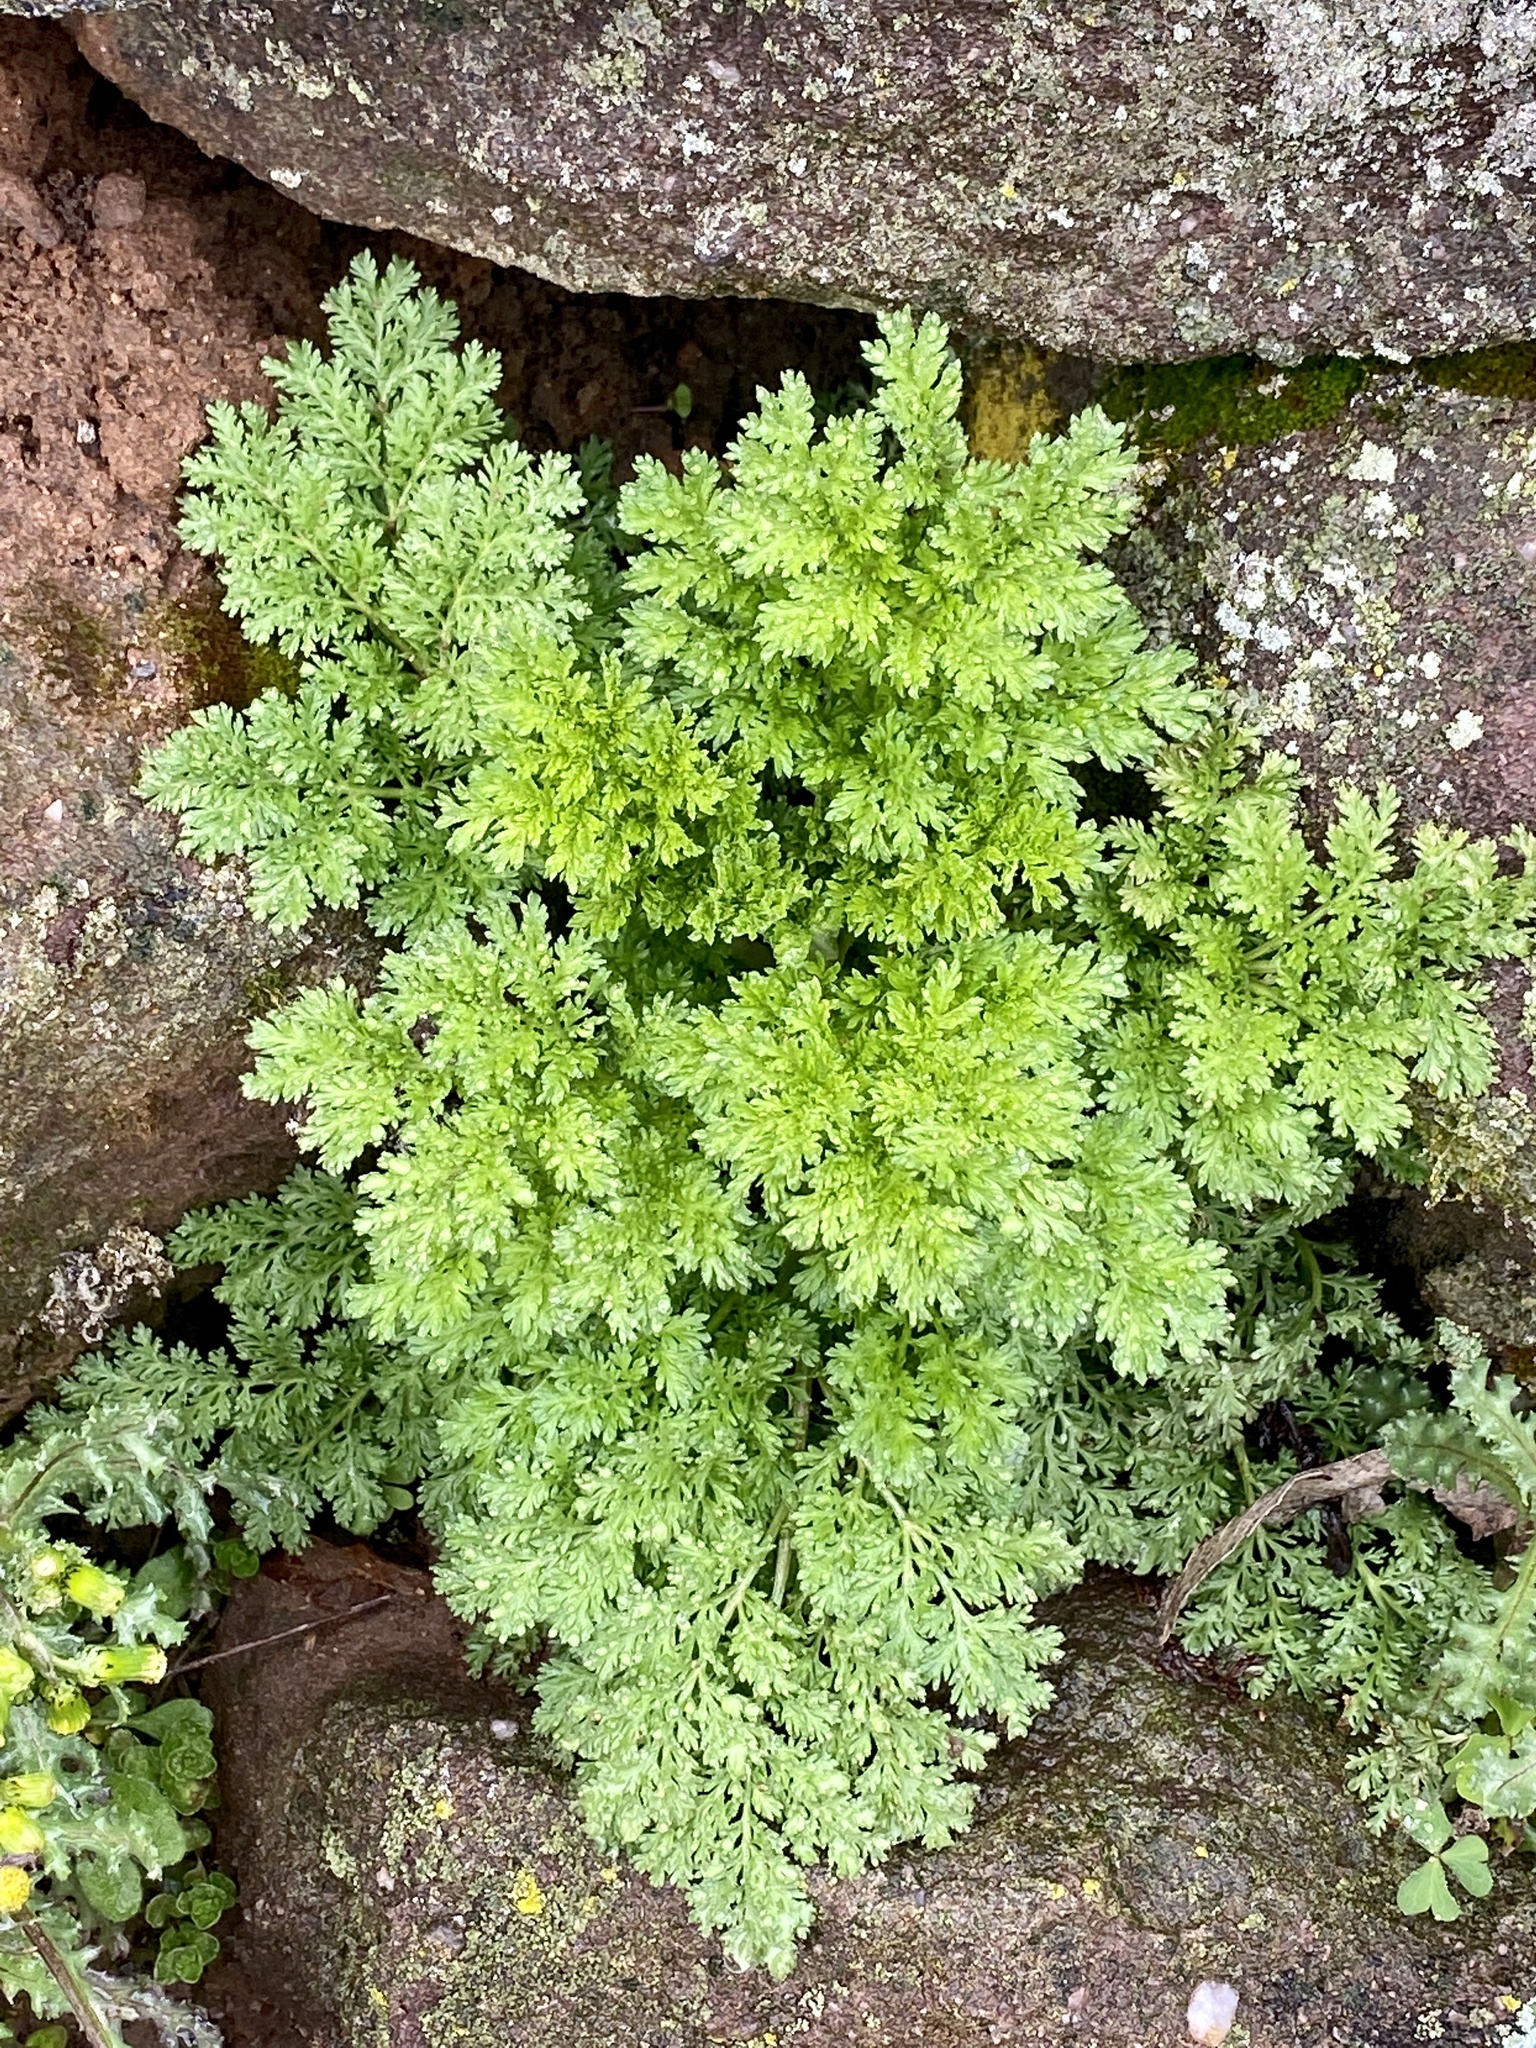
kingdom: Plantae
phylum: Tracheophyta
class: Magnoliopsida
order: Asterales
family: Asteraceae
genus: Artemisia
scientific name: Artemisia annua
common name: Sweet sagewort
